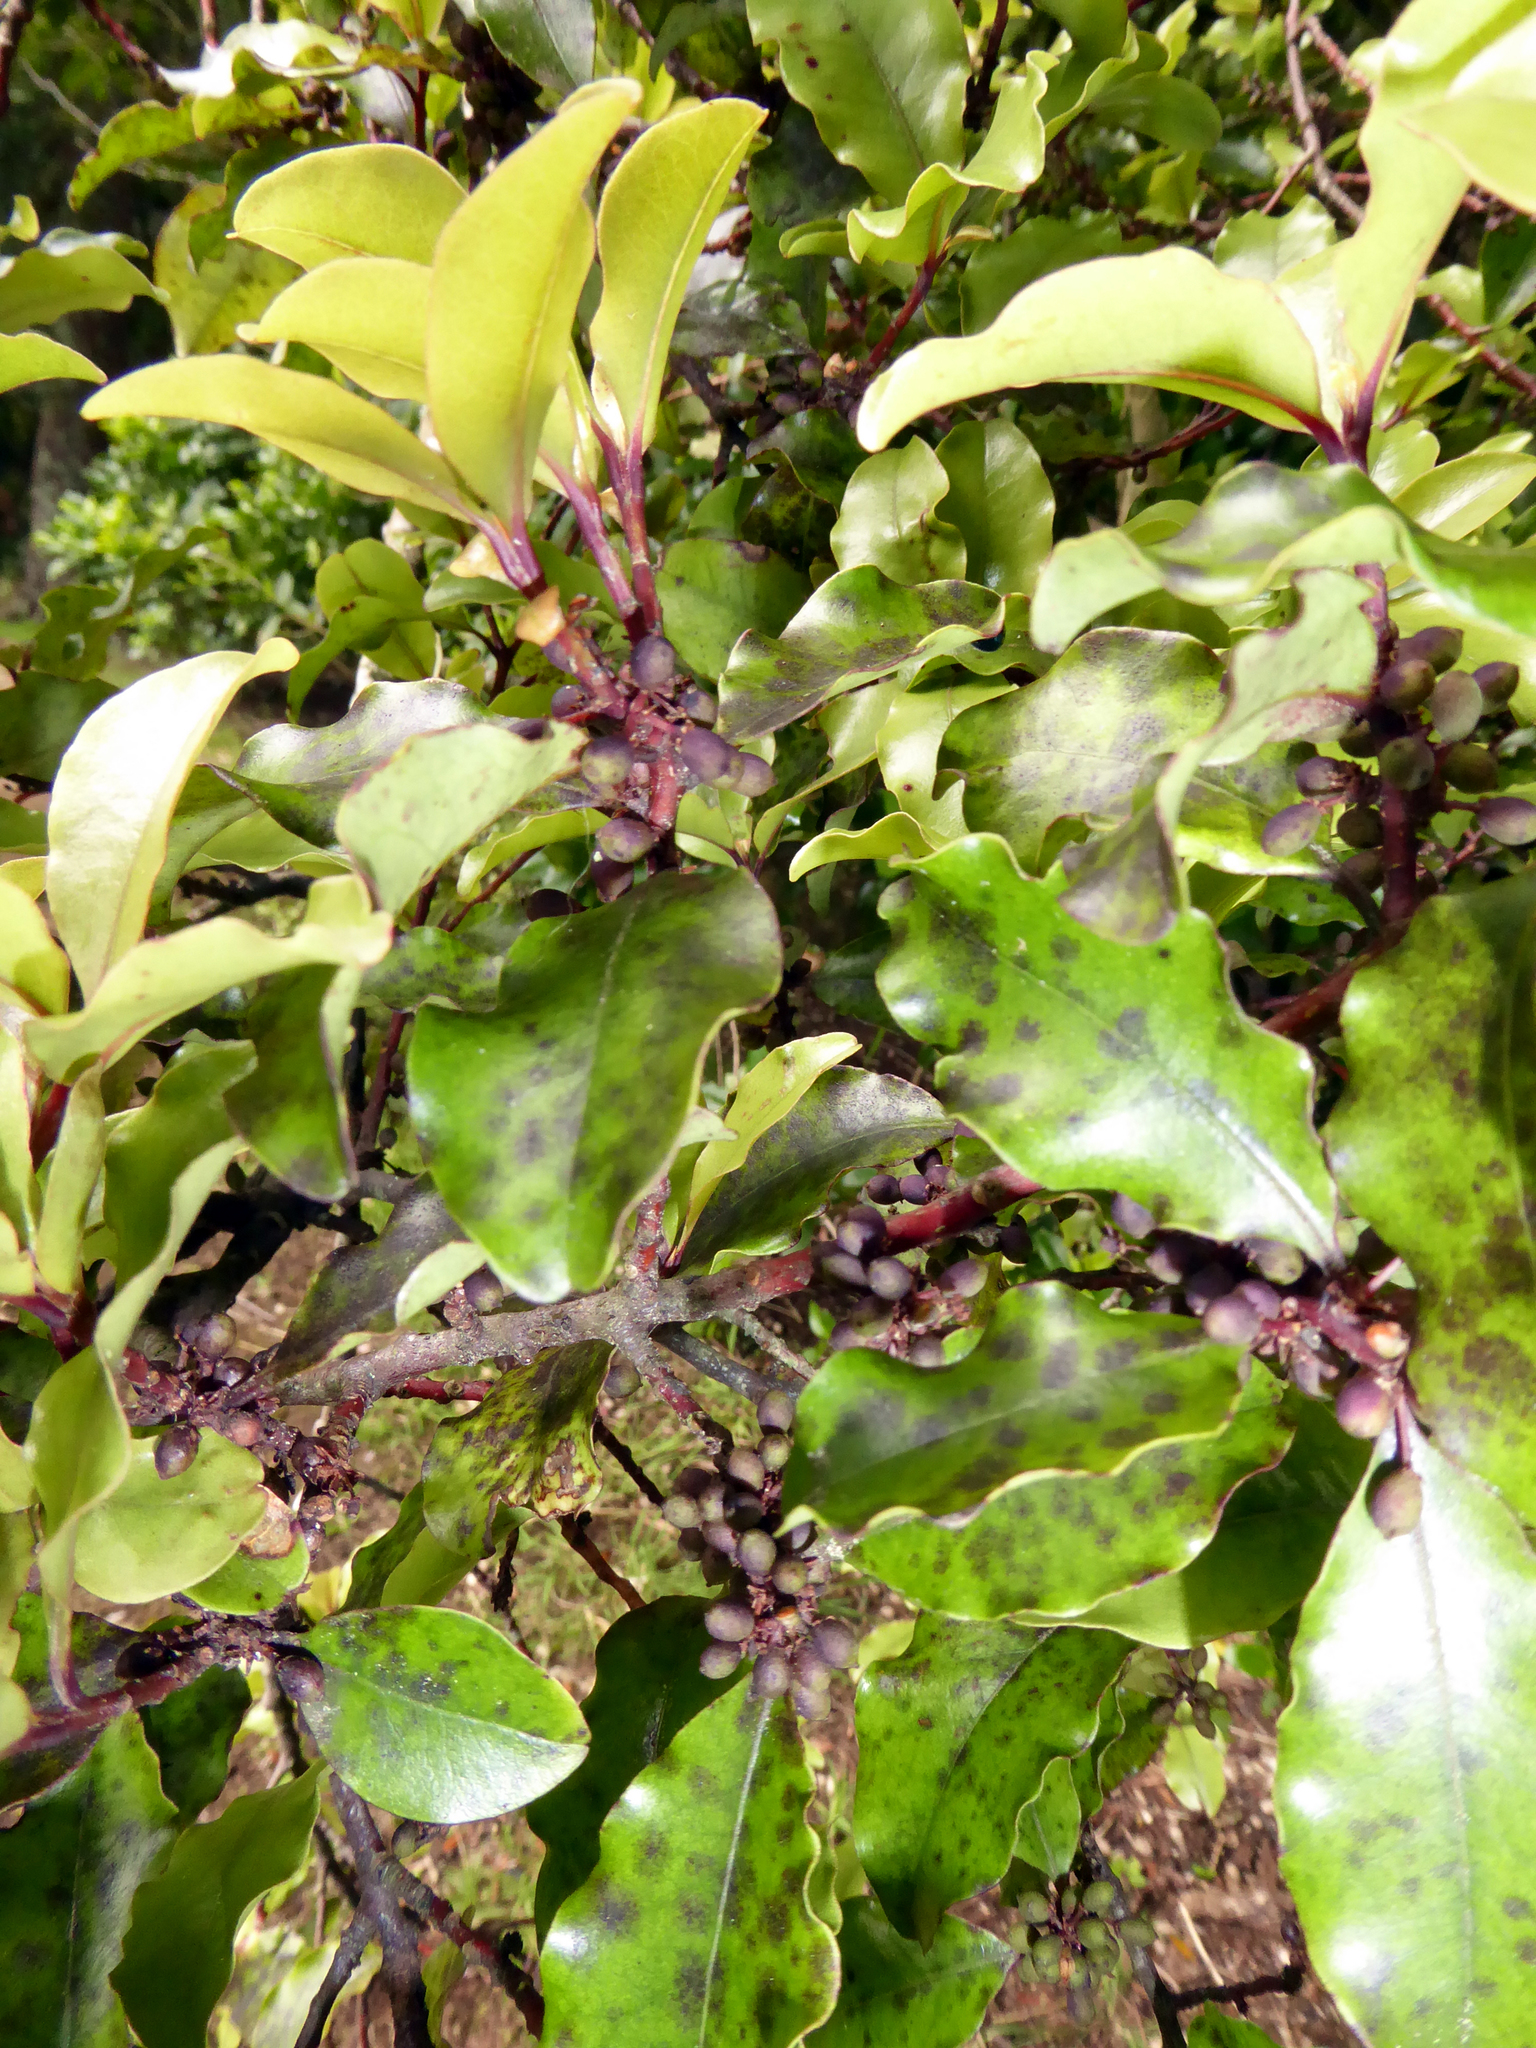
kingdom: Plantae
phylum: Tracheophyta
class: Magnoliopsida
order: Ericales
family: Primulaceae
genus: Myrsine
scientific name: Myrsine australis
